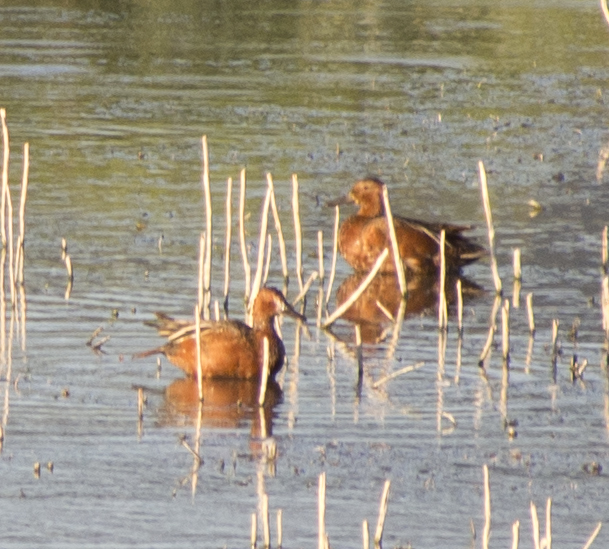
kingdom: Animalia
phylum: Chordata
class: Aves
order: Anseriformes
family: Anatidae
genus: Spatula
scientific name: Spatula cyanoptera
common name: Cinnamon teal
